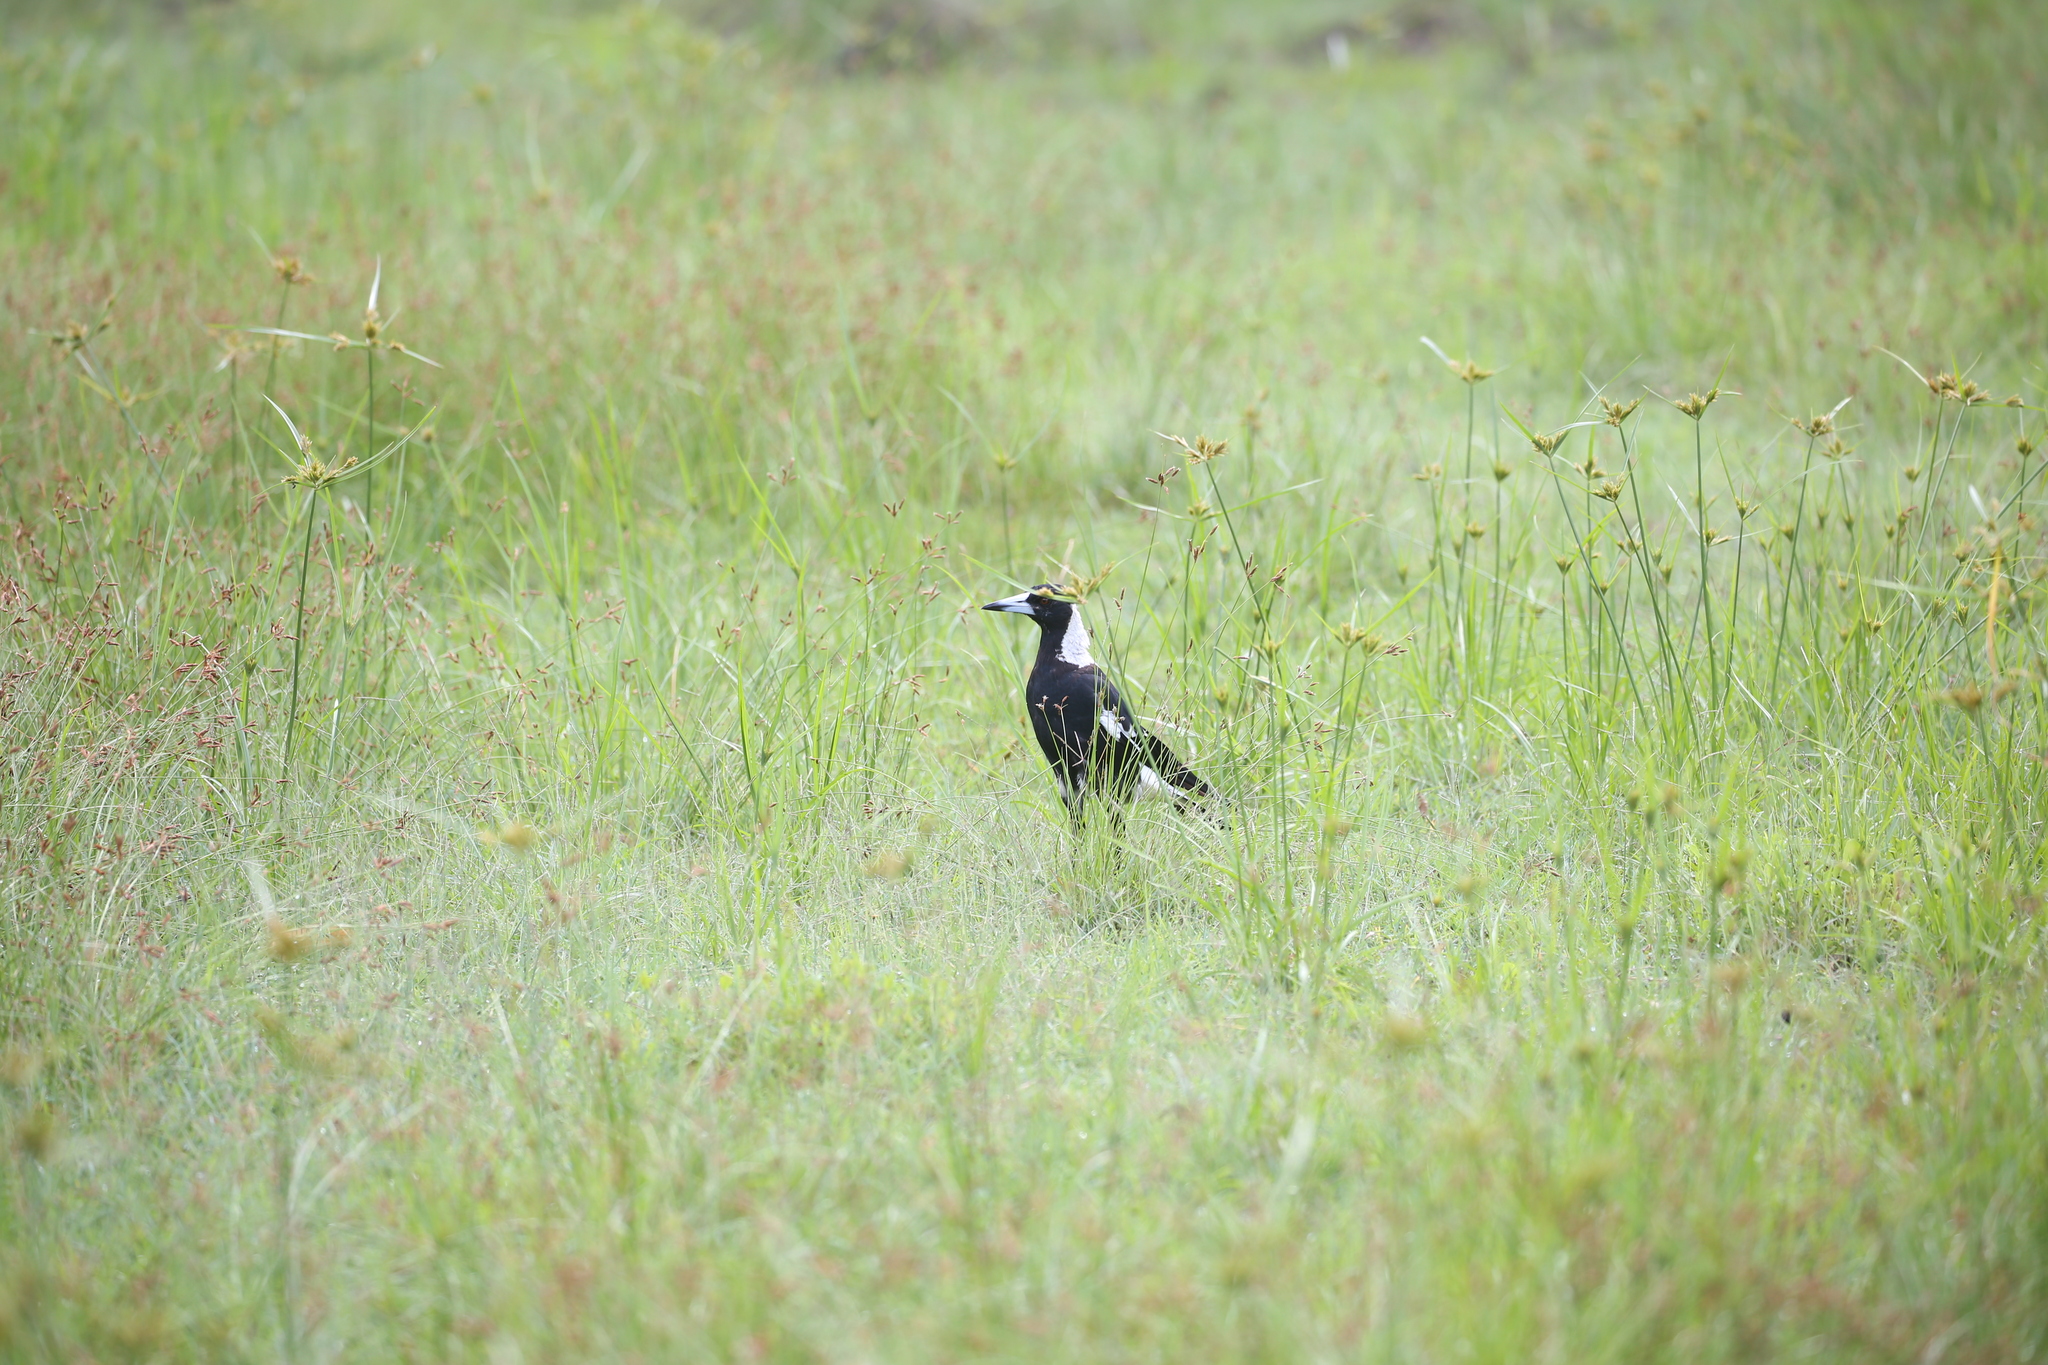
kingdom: Animalia
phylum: Chordata
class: Aves
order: Passeriformes
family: Cracticidae
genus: Gymnorhina
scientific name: Gymnorhina tibicen
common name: Australian magpie
